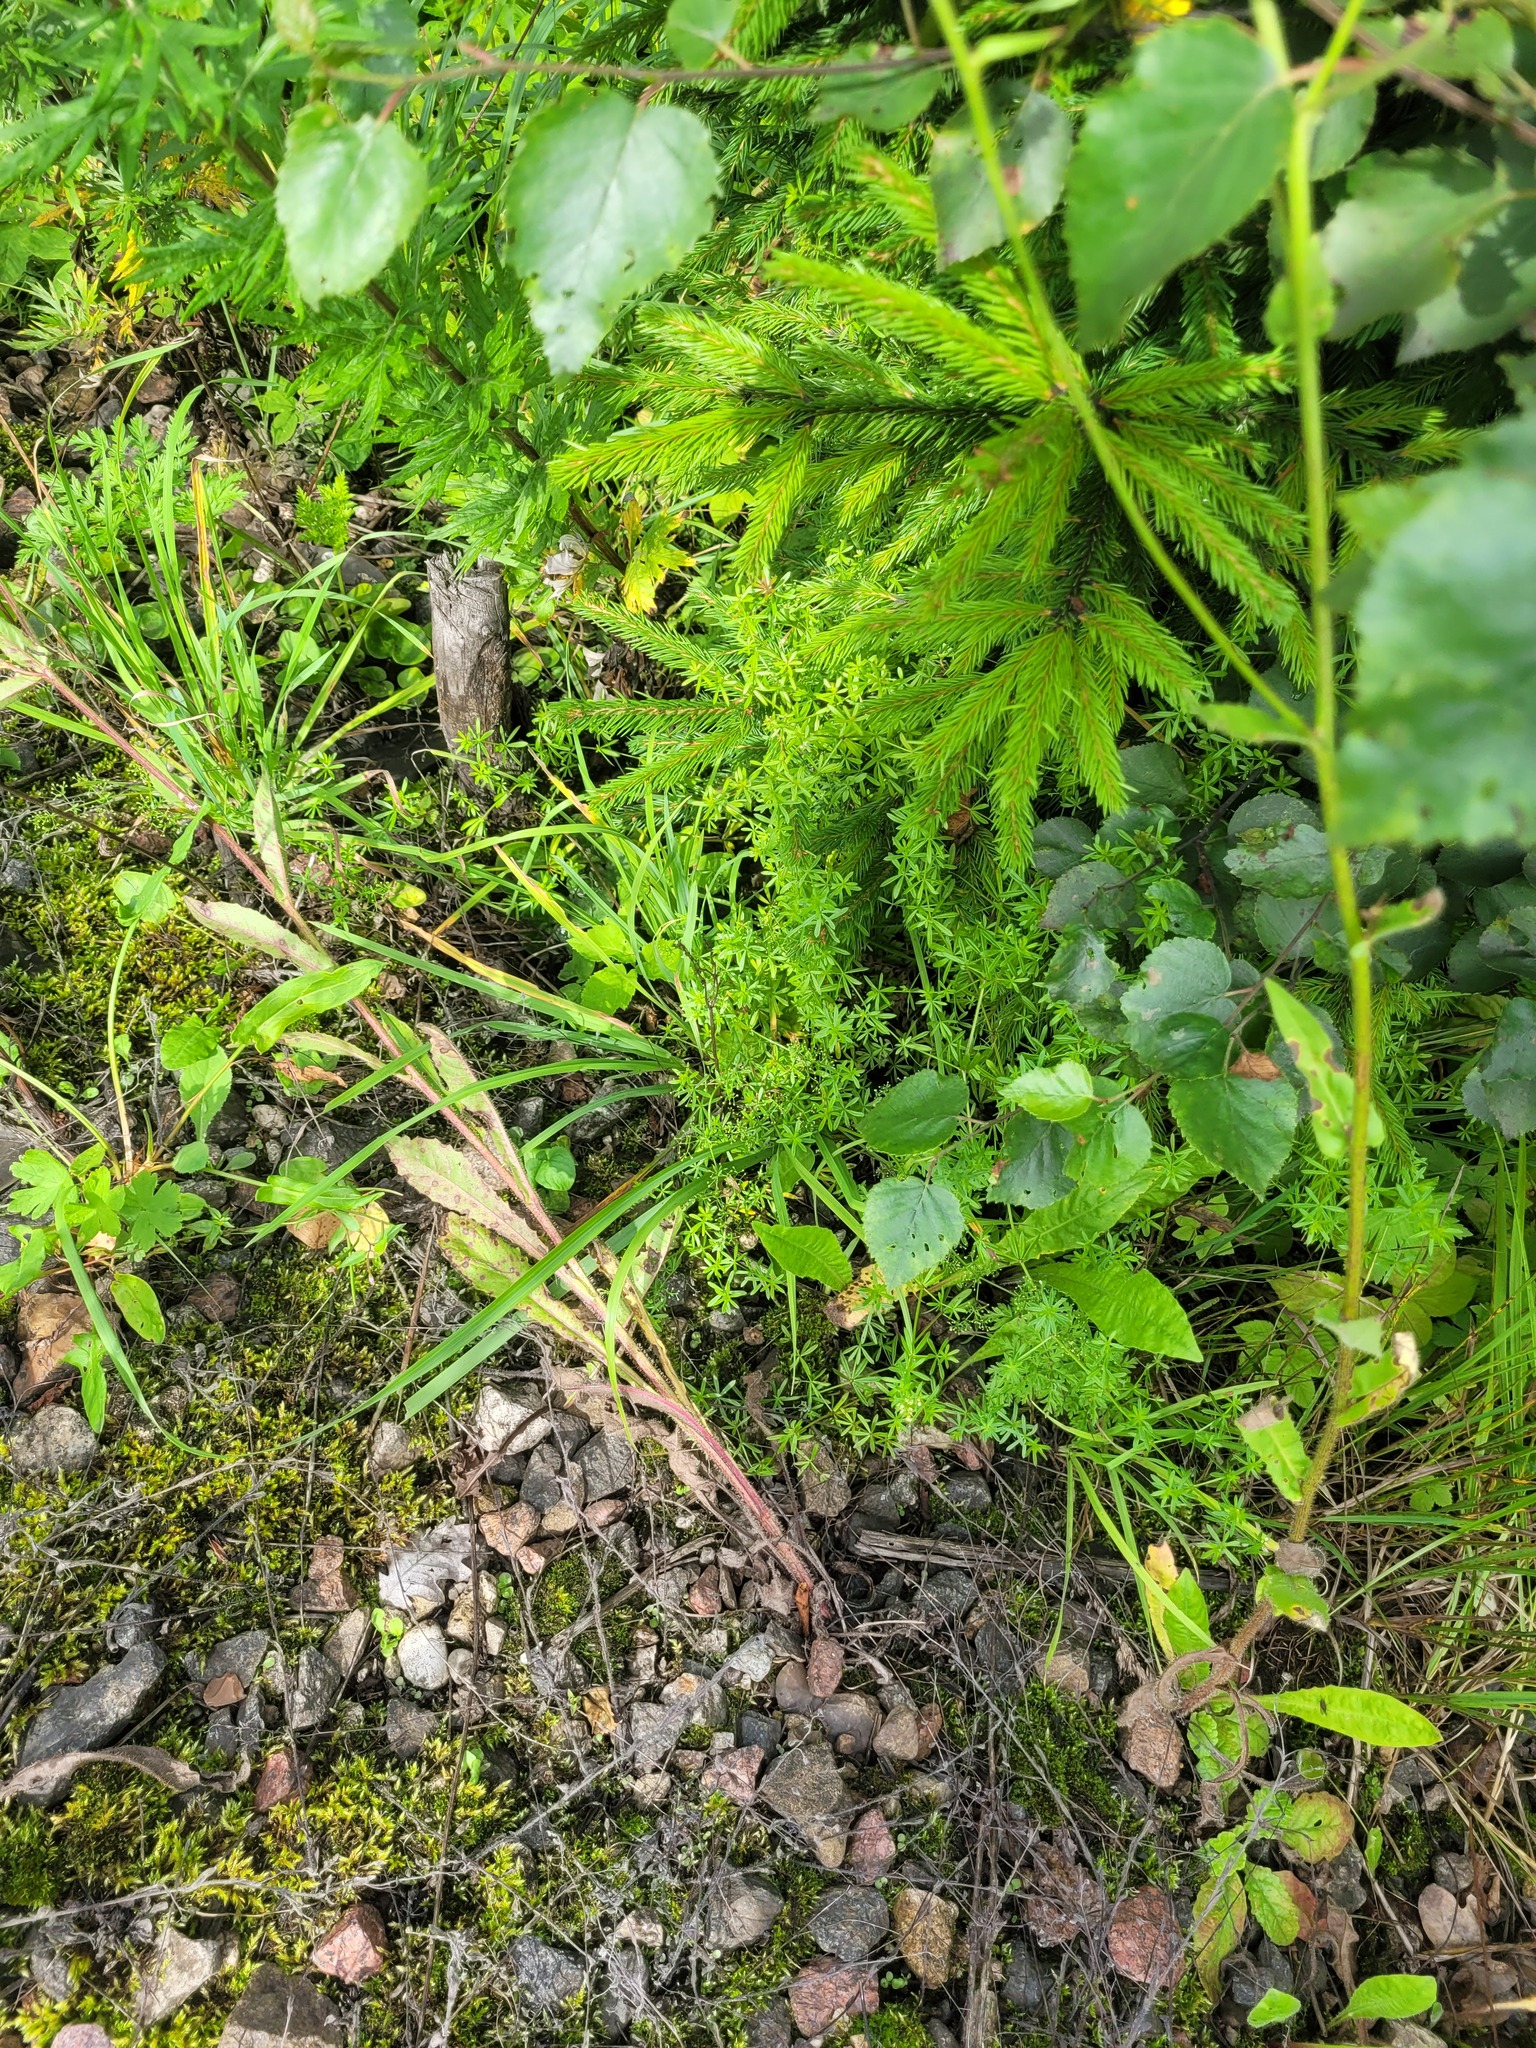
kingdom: Plantae
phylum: Tracheophyta
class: Magnoliopsida
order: Gentianales
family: Rubiaceae
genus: Galium
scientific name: Galium mollugo
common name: Hedge bedstraw
